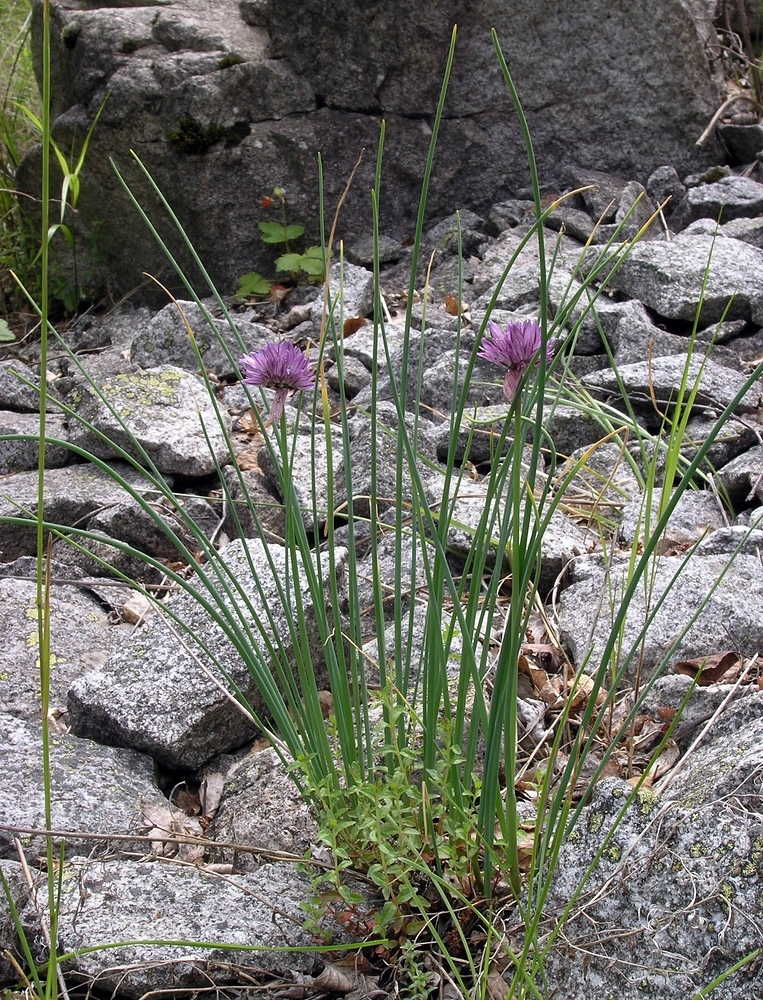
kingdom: Plantae
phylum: Tracheophyta
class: Liliopsida
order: Asparagales
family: Amaryllidaceae
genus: Allium
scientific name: Allium schoenoprasum
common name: Chives
